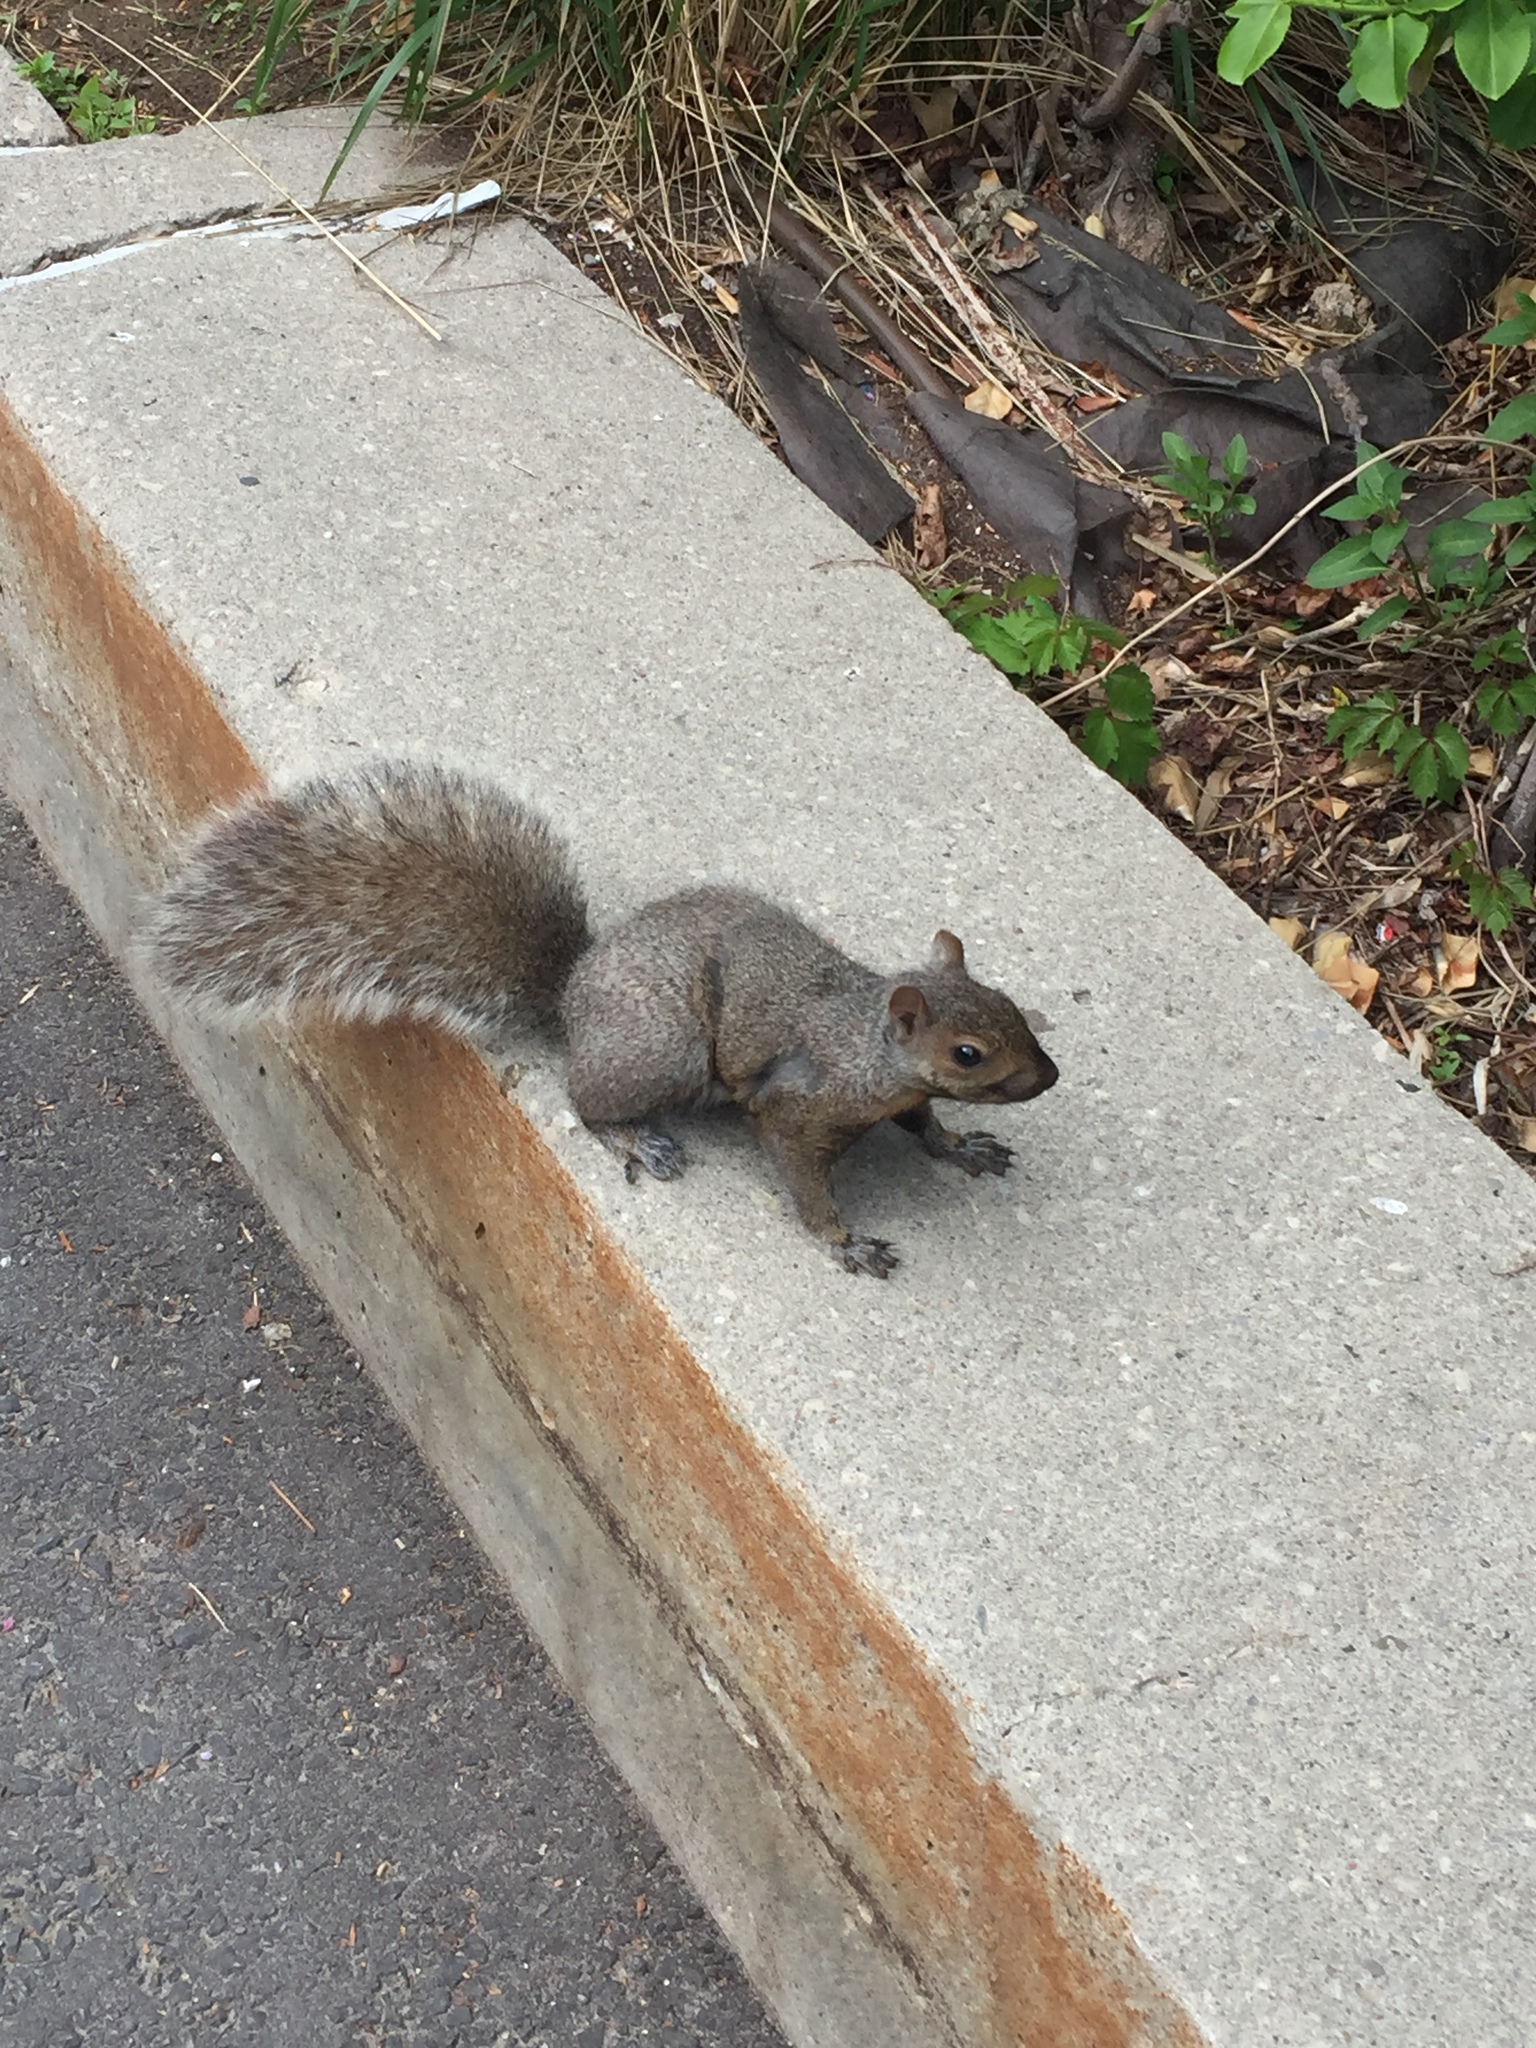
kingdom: Animalia
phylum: Chordata
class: Mammalia
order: Rodentia
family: Sciuridae
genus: Sciurus
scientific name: Sciurus carolinensis
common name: Eastern gray squirrel
